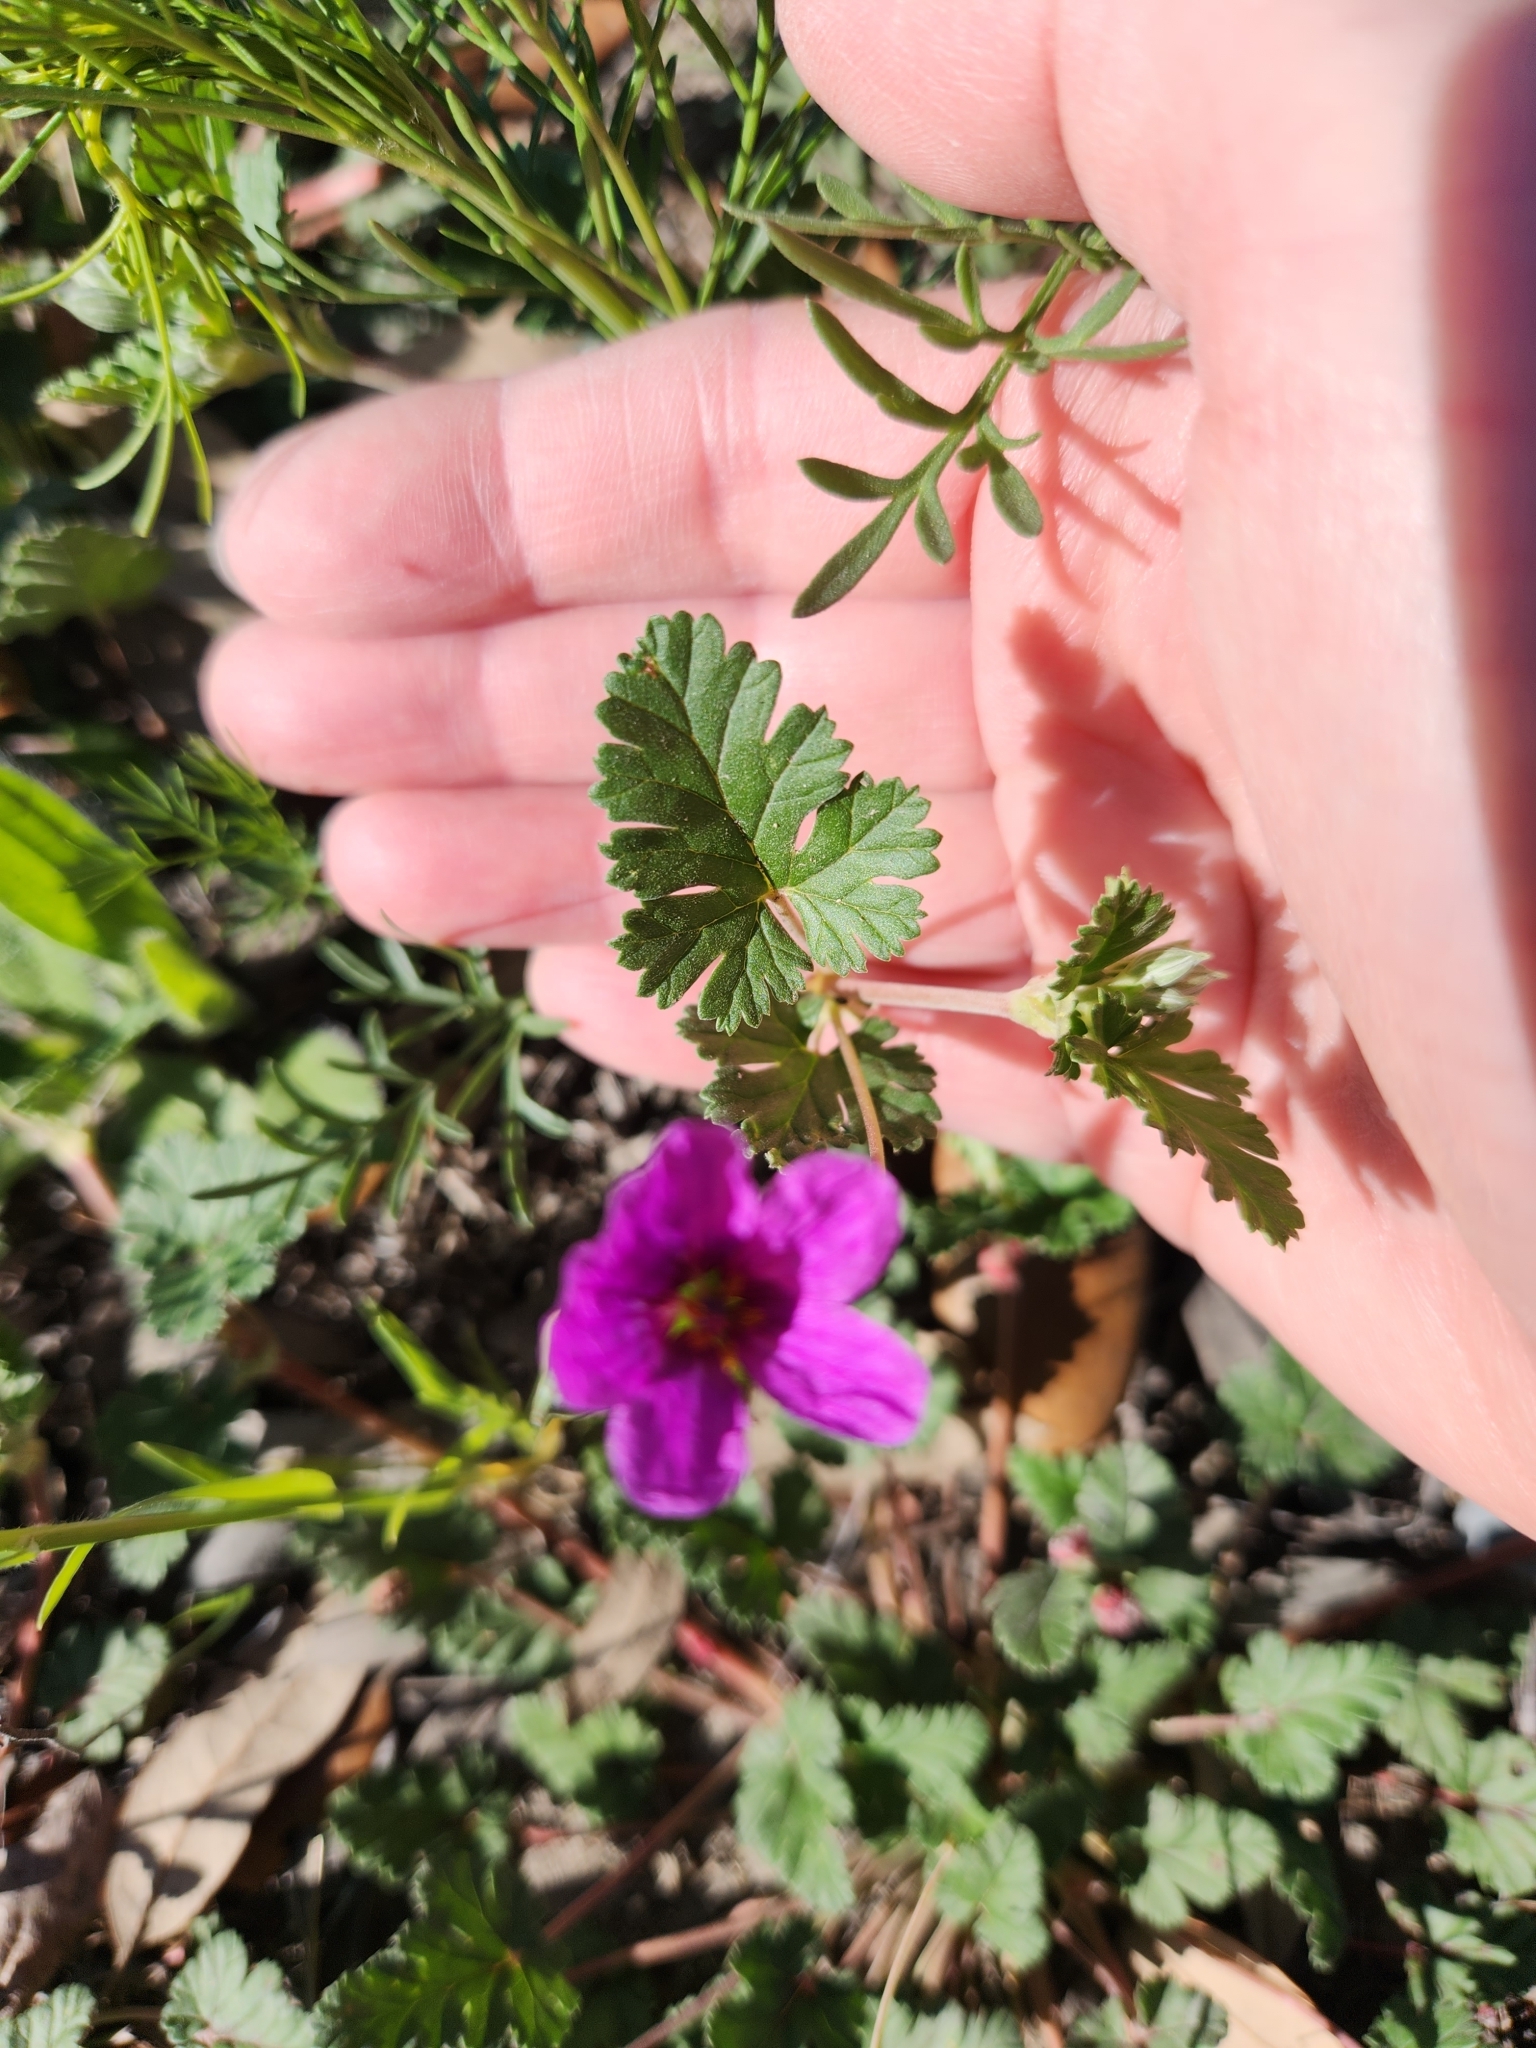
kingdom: Plantae
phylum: Tracheophyta
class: Magnoliopsida
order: Geraniales
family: Geraniaceae
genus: Erodium
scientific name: Erodium texanum
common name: Texas stork's-bill
